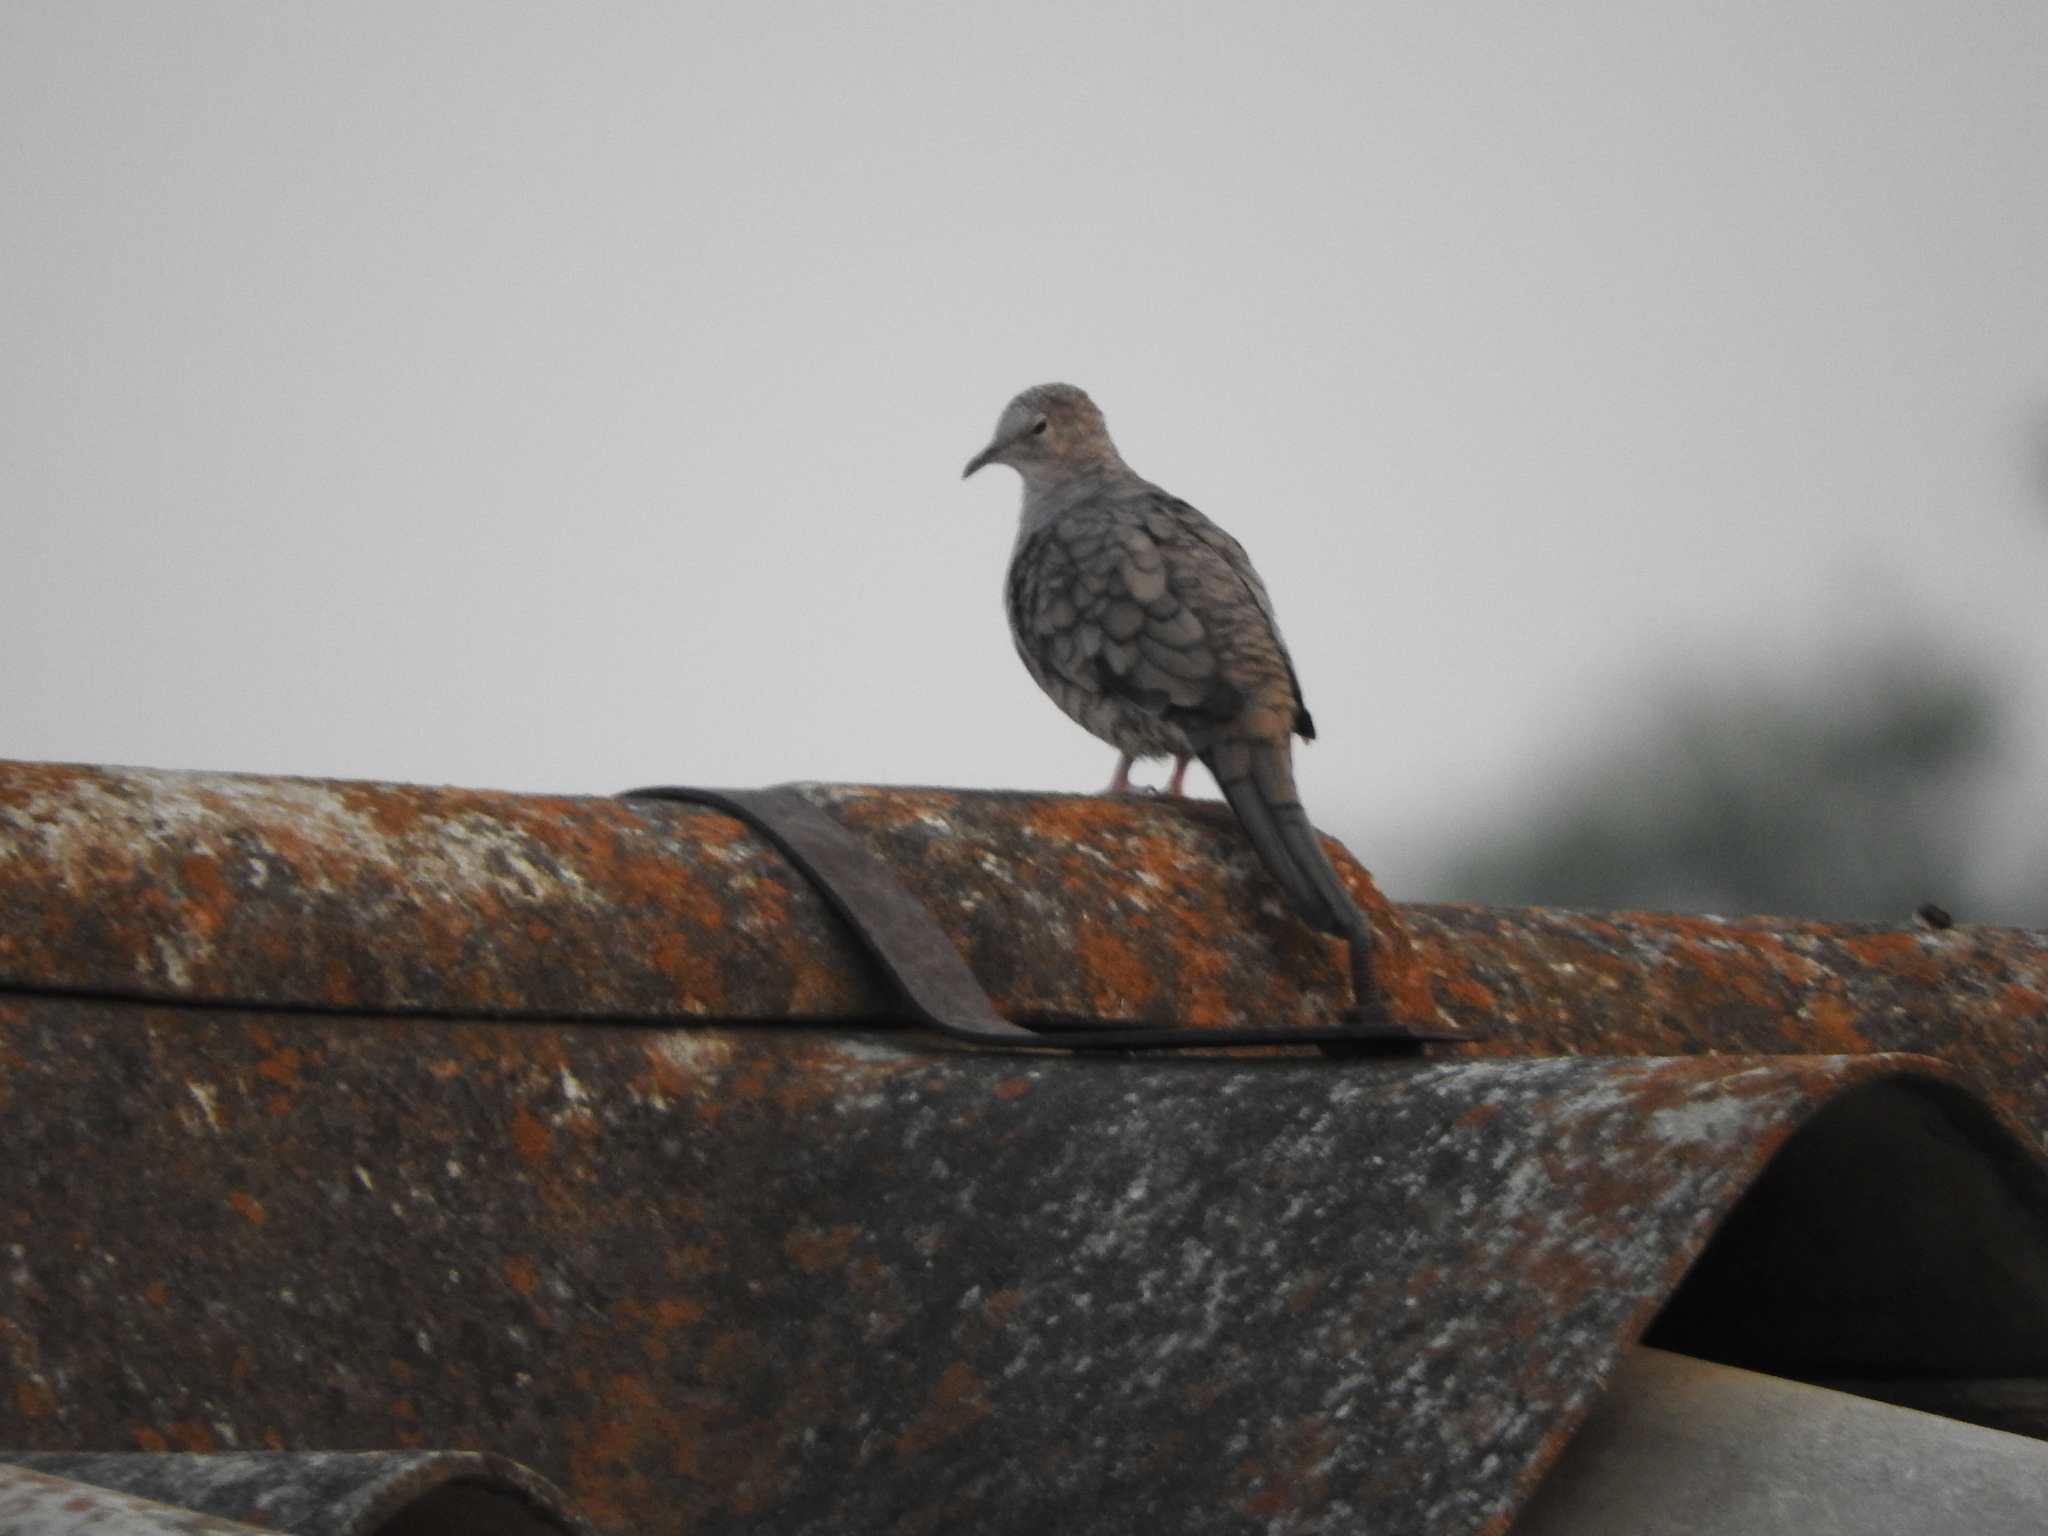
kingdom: Animalia
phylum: Chordata
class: Aves
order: Columbiformes
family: Columbidae
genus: Columbina
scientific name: Columbina inca
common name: Inca dove
